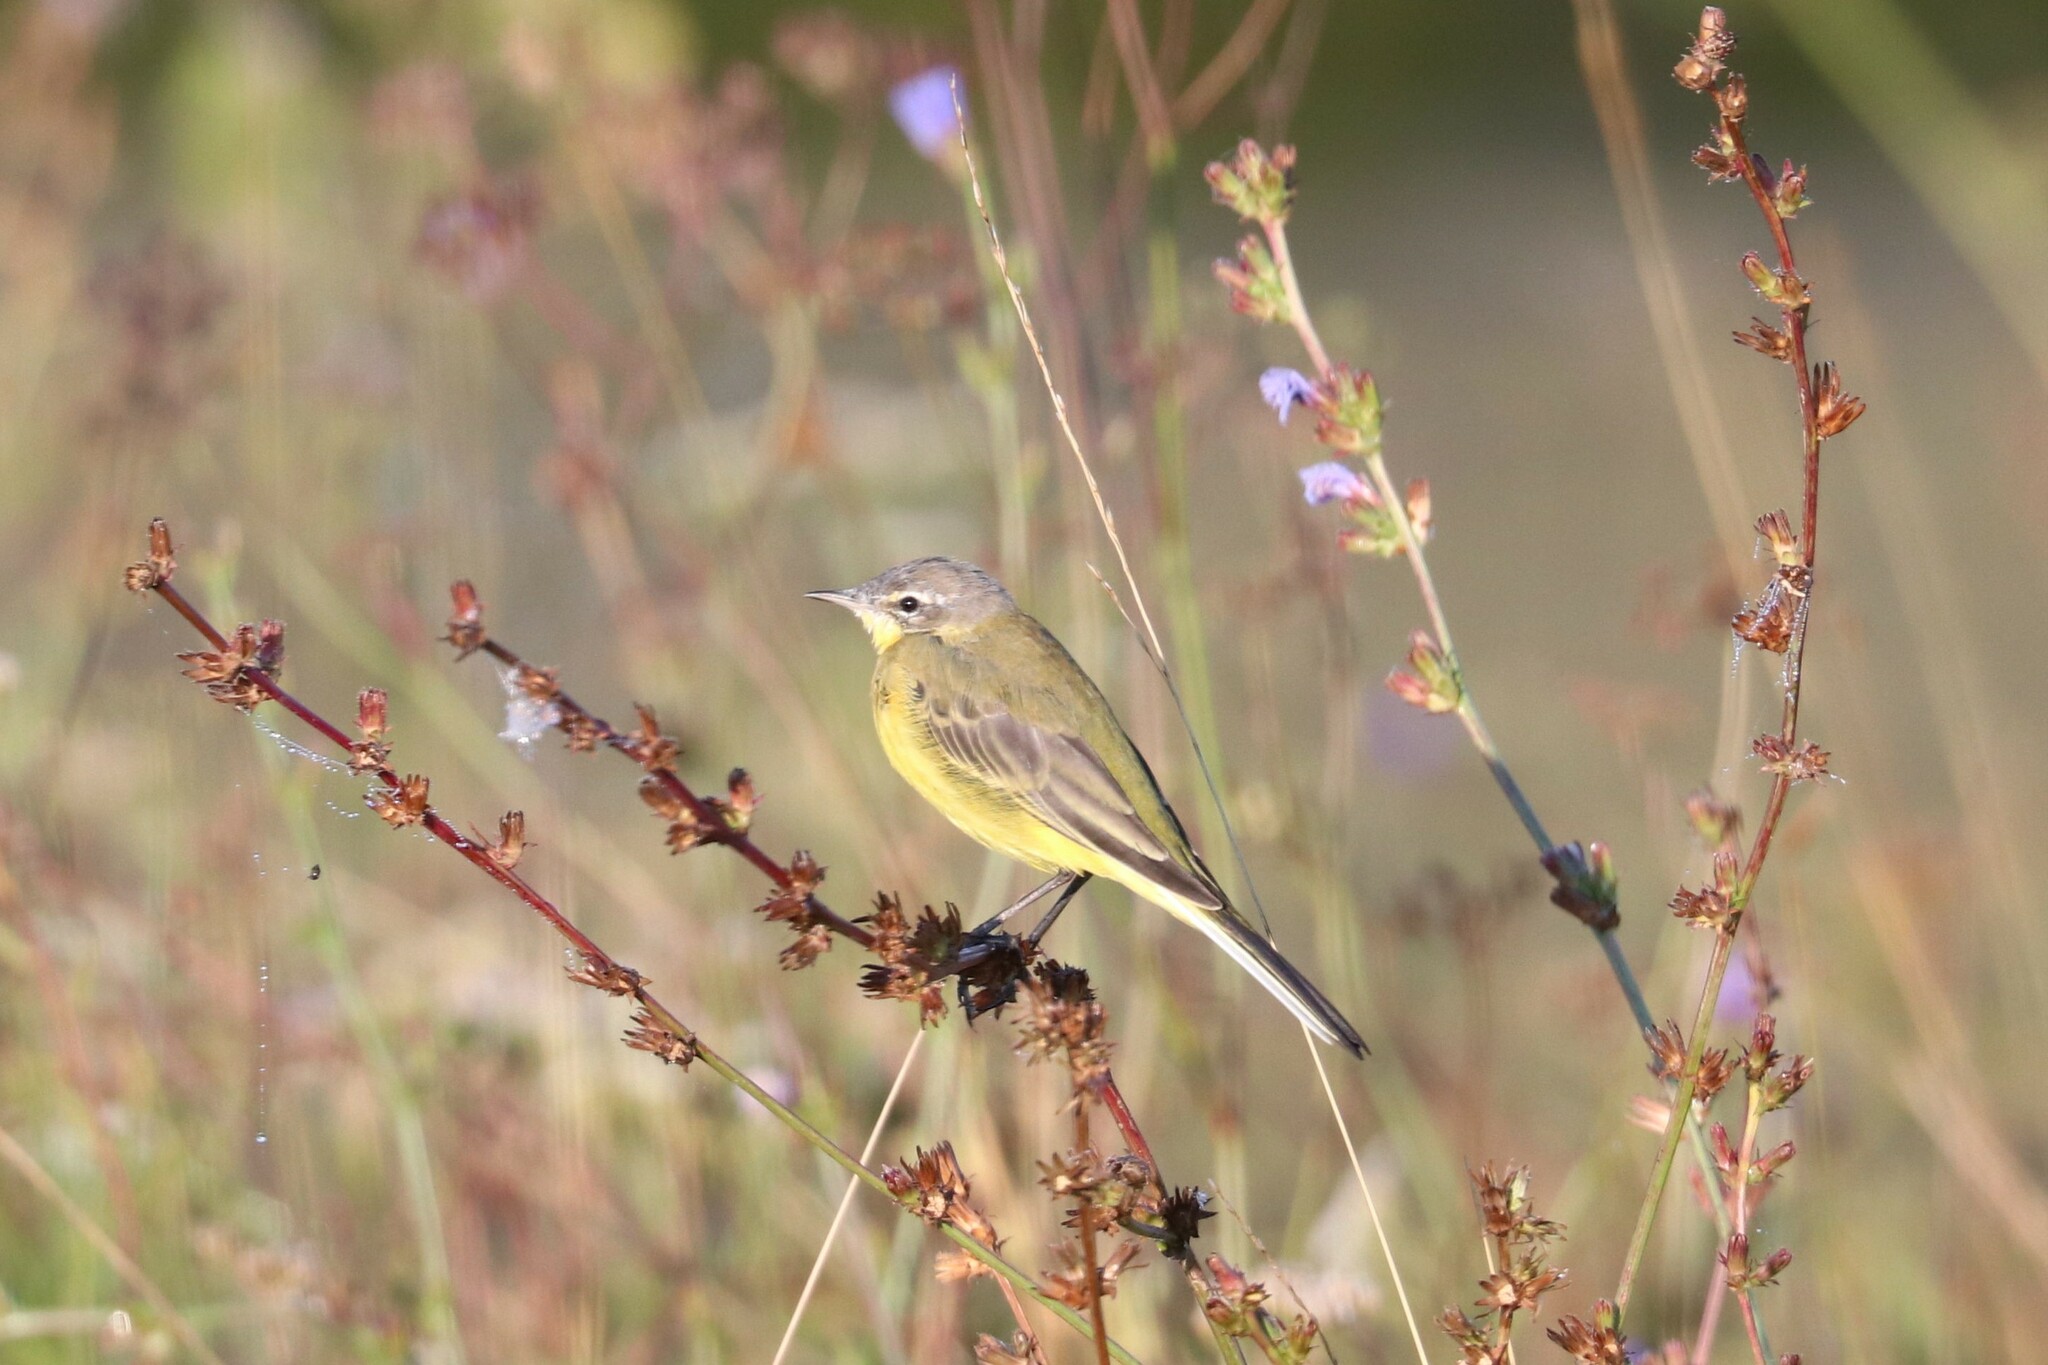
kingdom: Animalia
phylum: Chordata
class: Aves
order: Passeriformes
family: Motacillidae
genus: Motacilla
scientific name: Motacilla flava
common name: Western yellow wagtail
